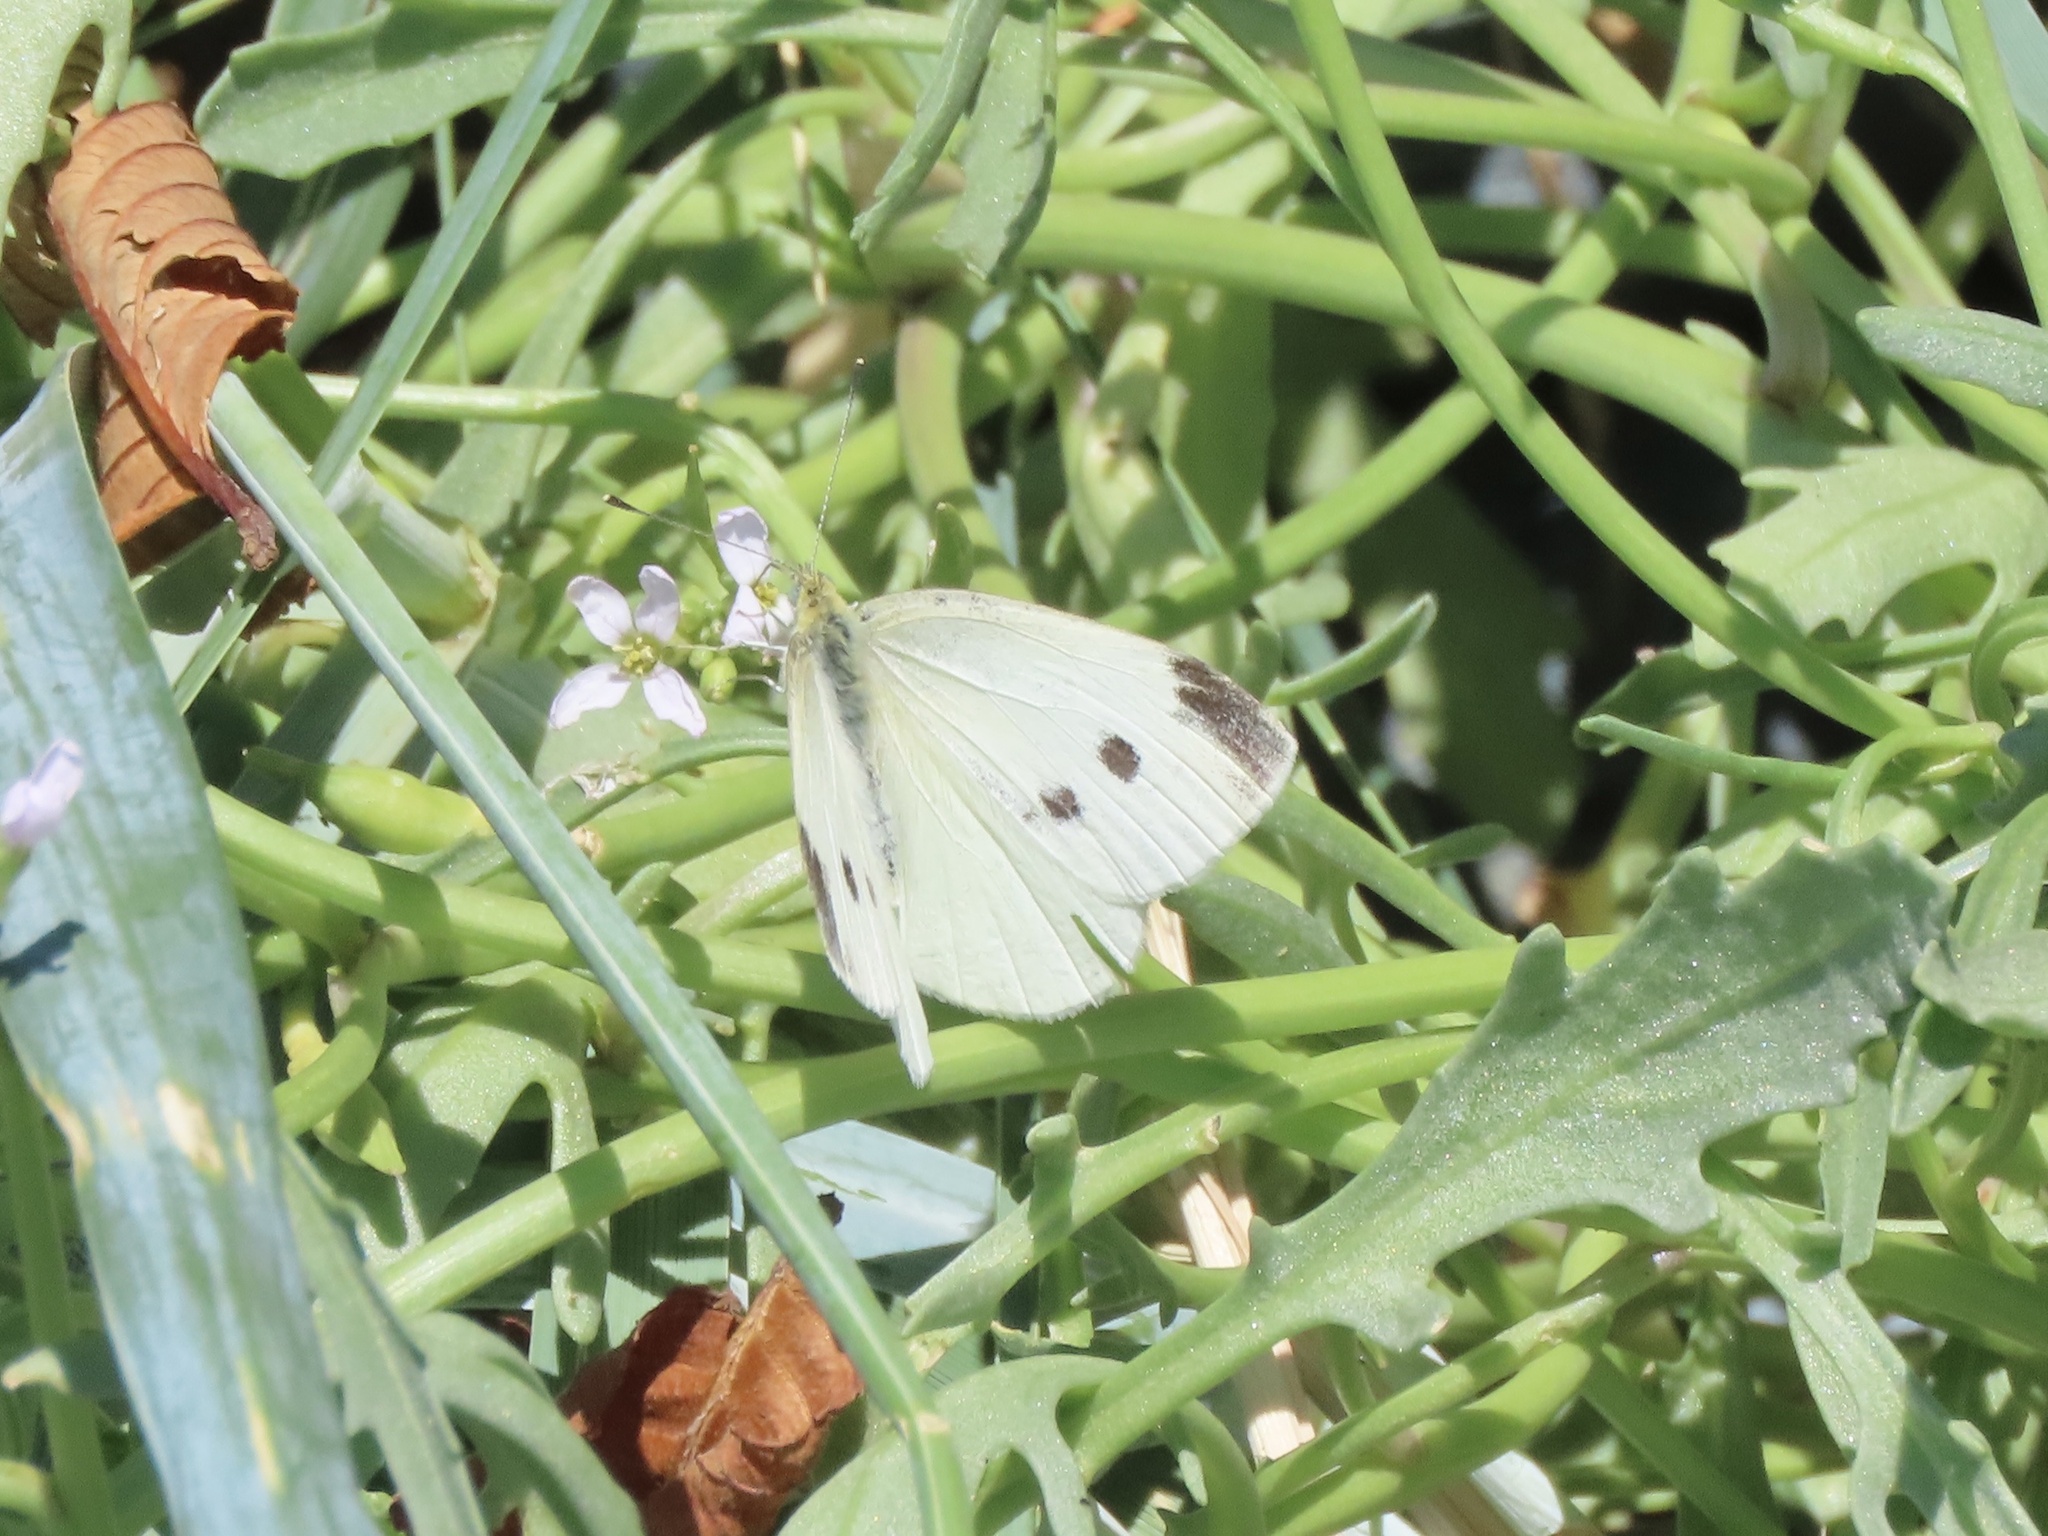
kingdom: Animalia
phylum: Arthropoda
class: Insecta
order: Lepidoptera
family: Pieridae
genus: Pieris
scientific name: Pieris rapae
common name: Small white
